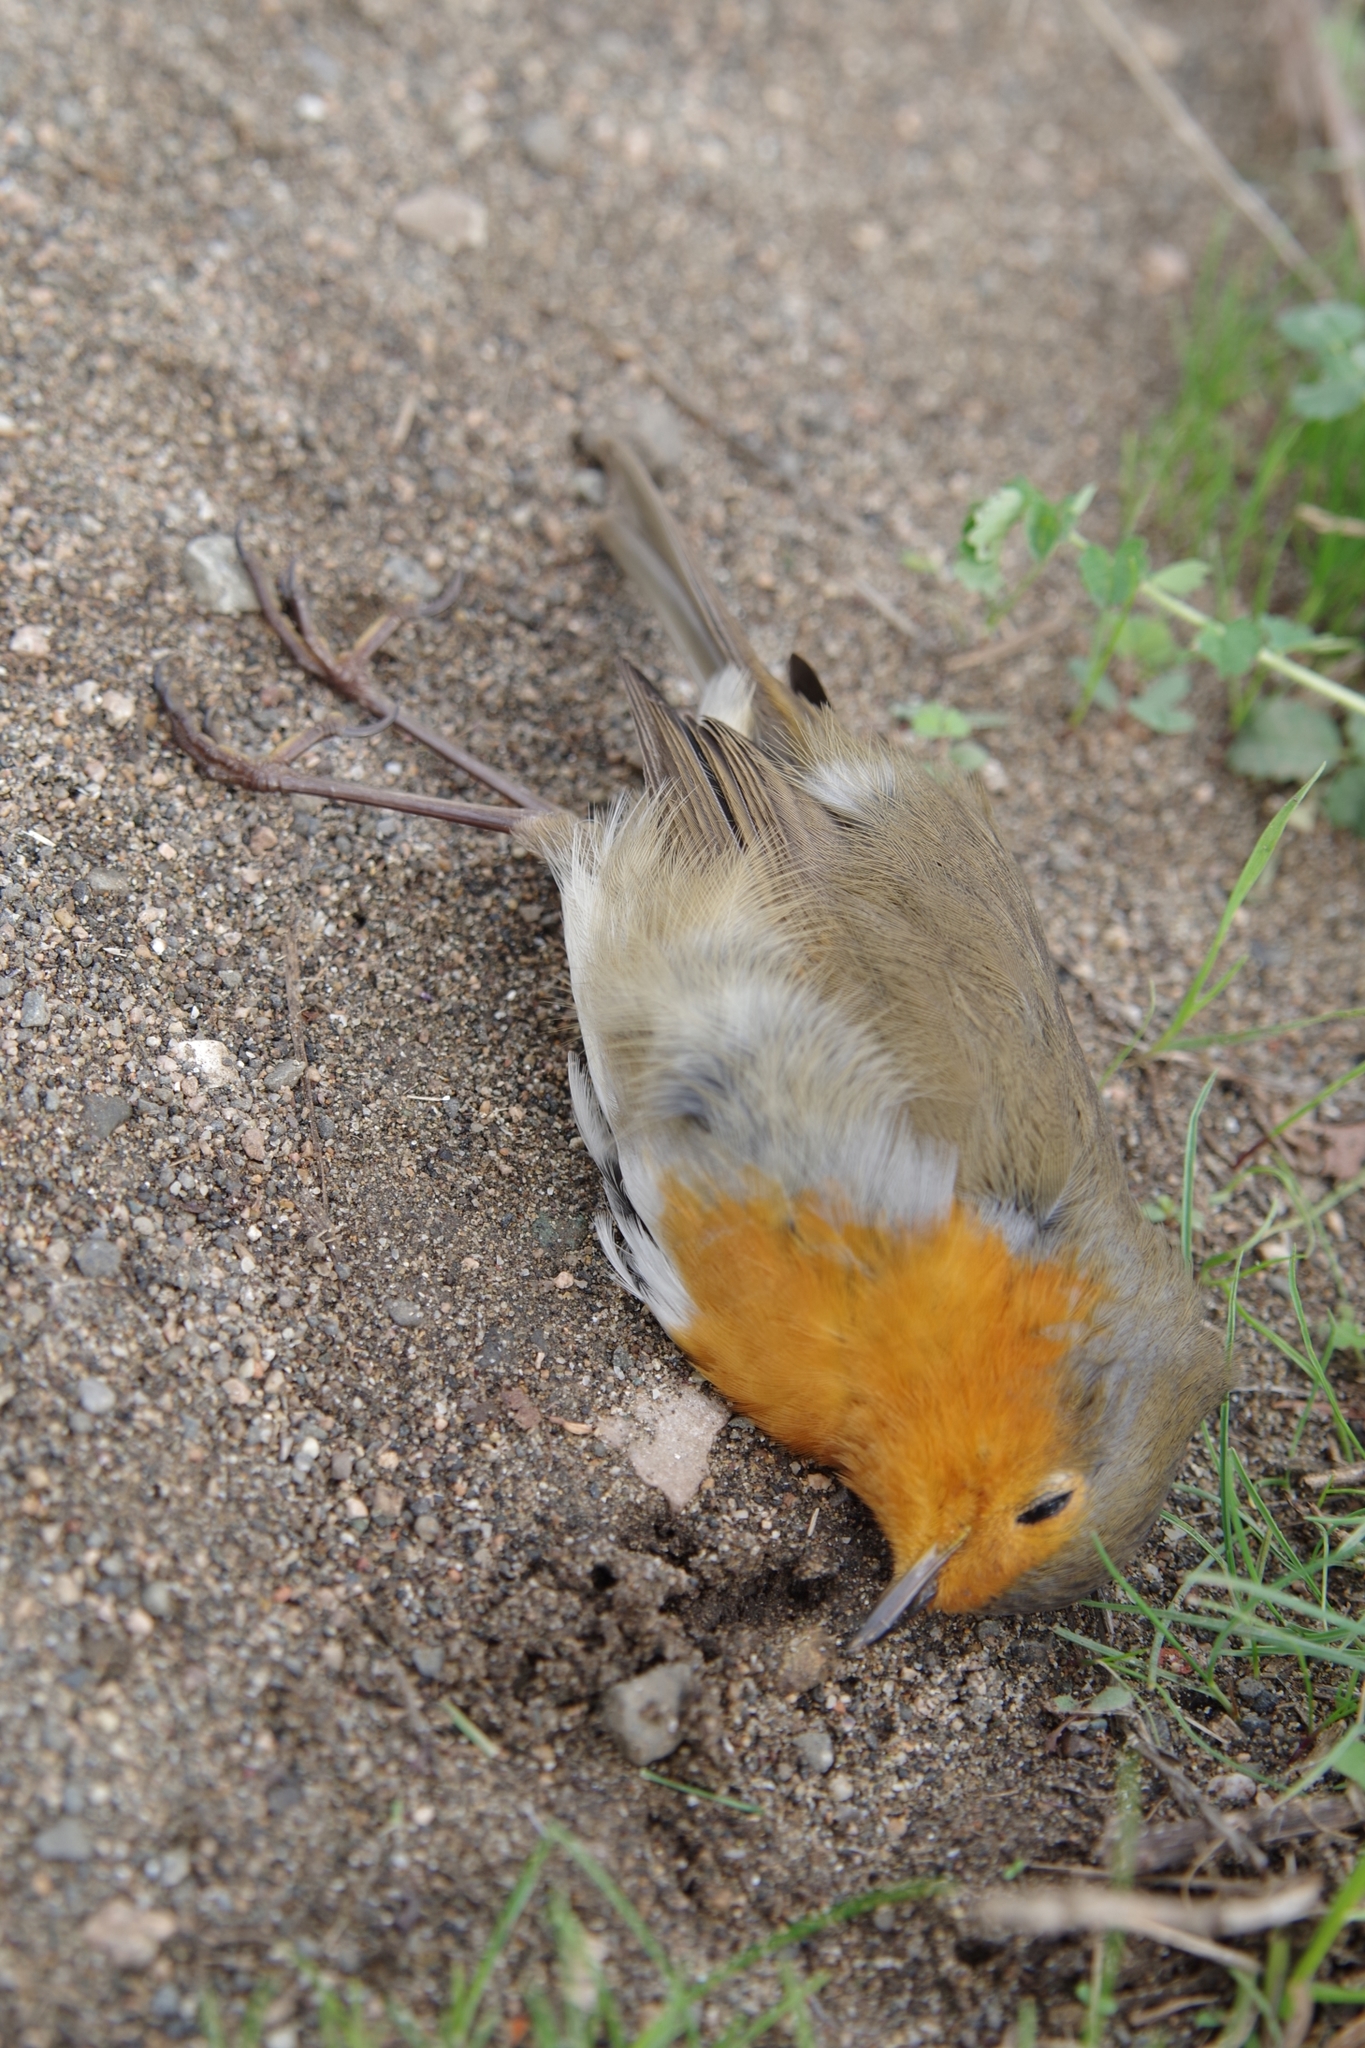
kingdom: Animalia
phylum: Chordata
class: Aves
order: Passeriformes
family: Muscicapidae
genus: Erithacus
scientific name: Erithacus rubecula
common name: European robin
